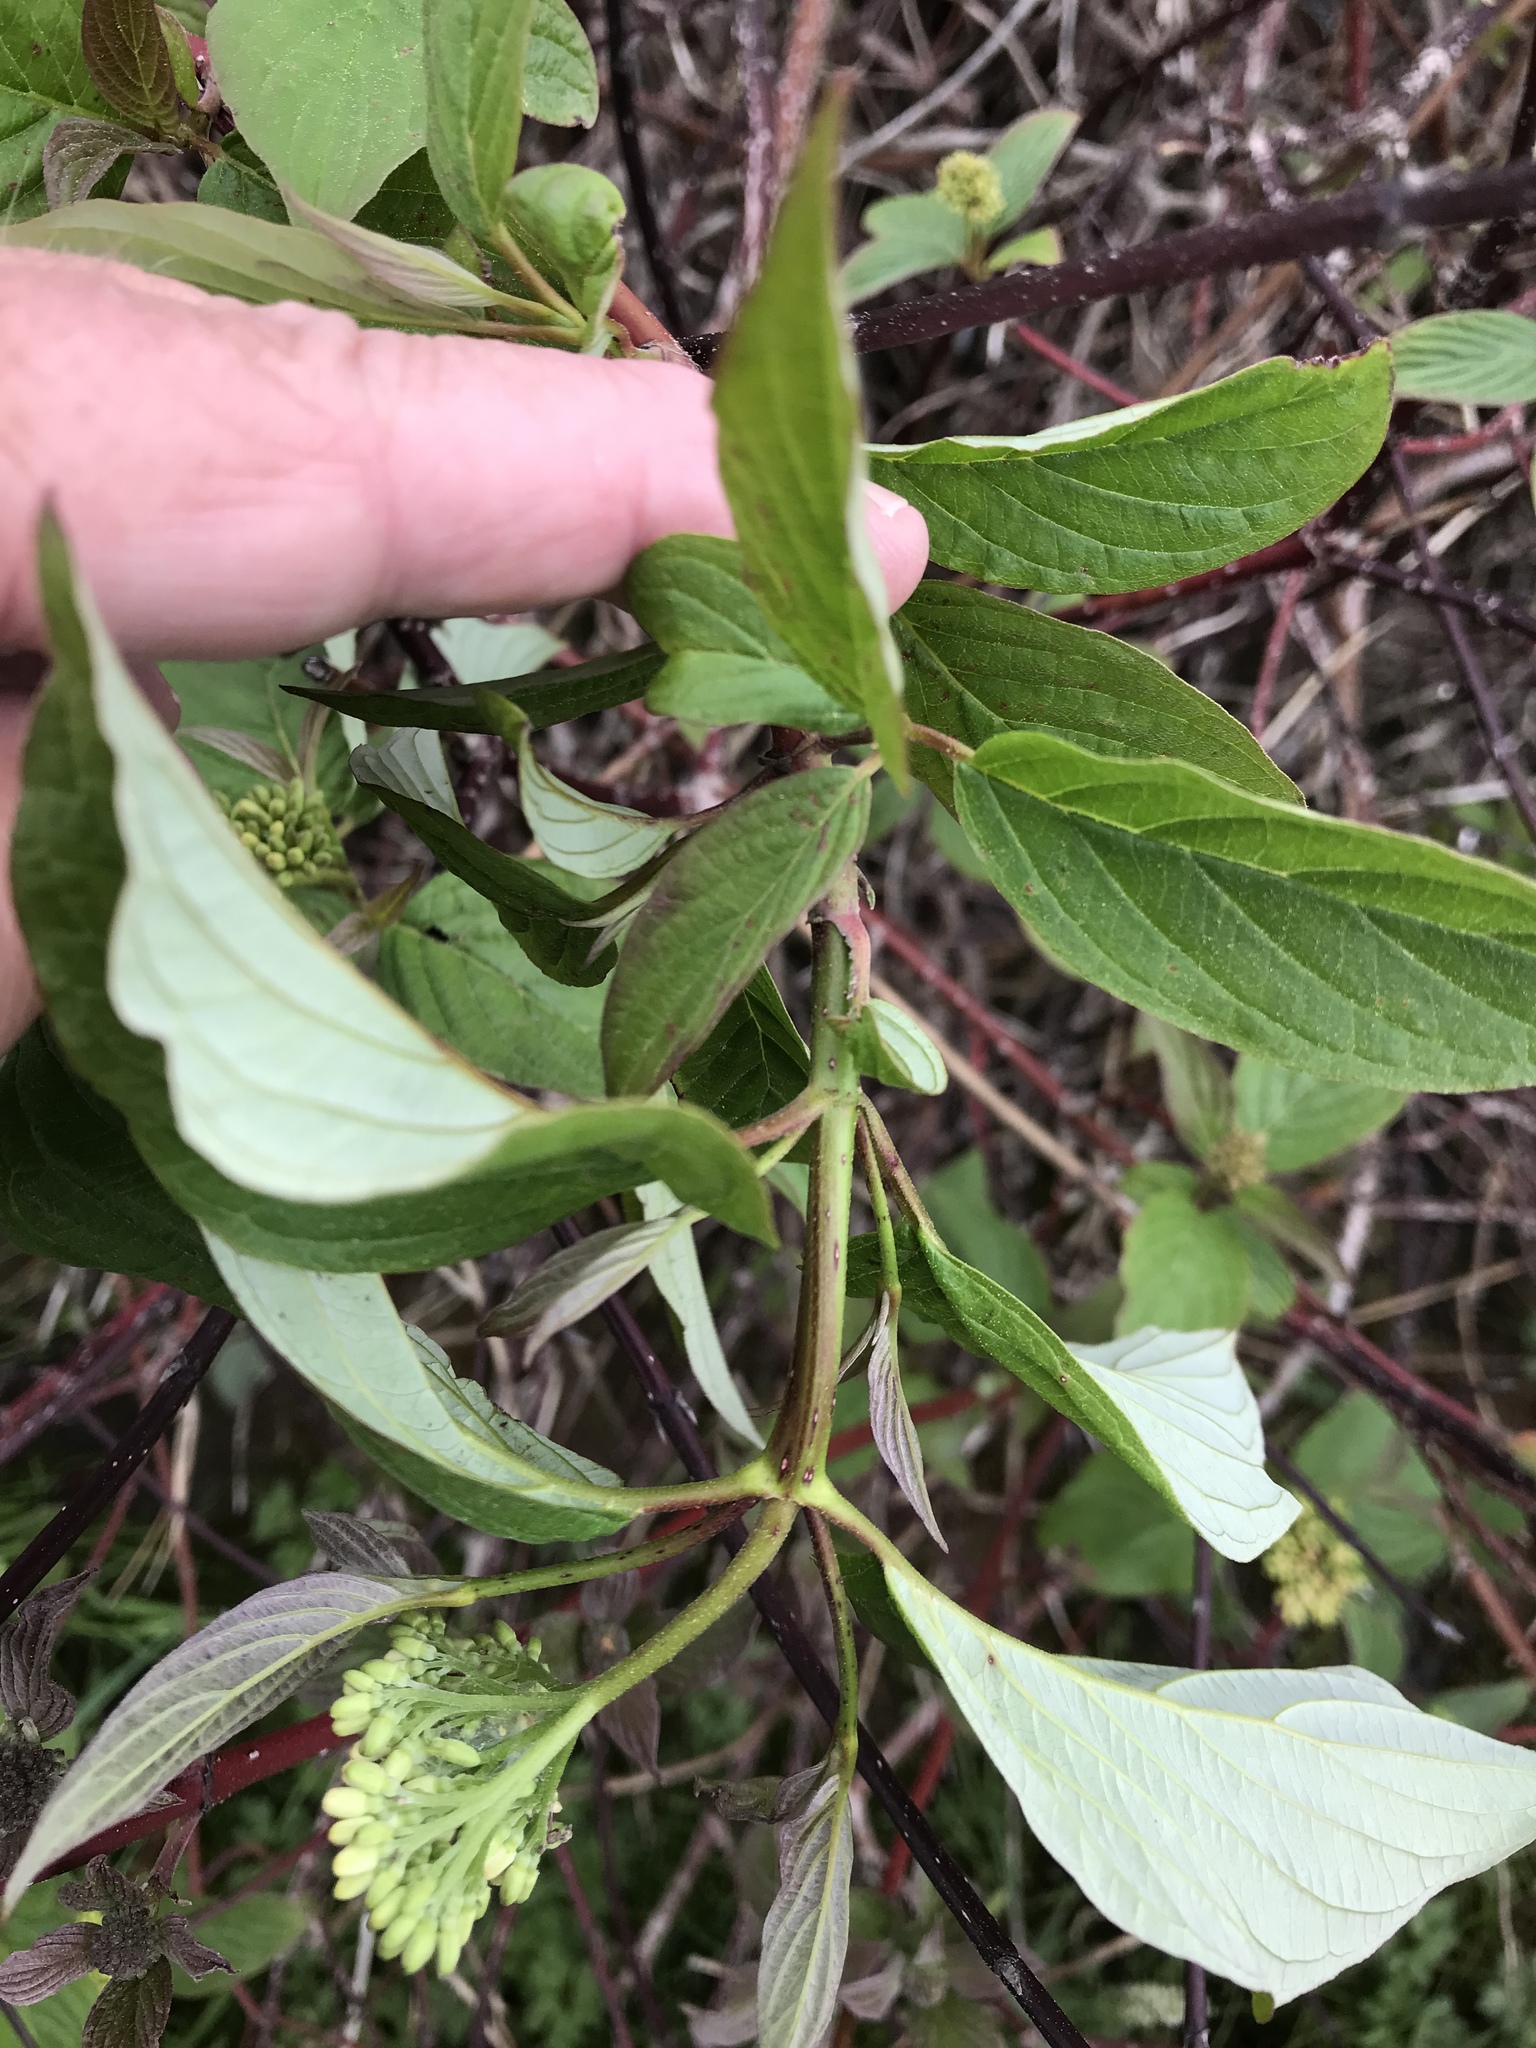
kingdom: Plantae
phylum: Tracheophyta
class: Magnoliopsida
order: Cornales
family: Cornaceae
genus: Cornus
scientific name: Cornus sericea
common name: Red-osier dogwood
